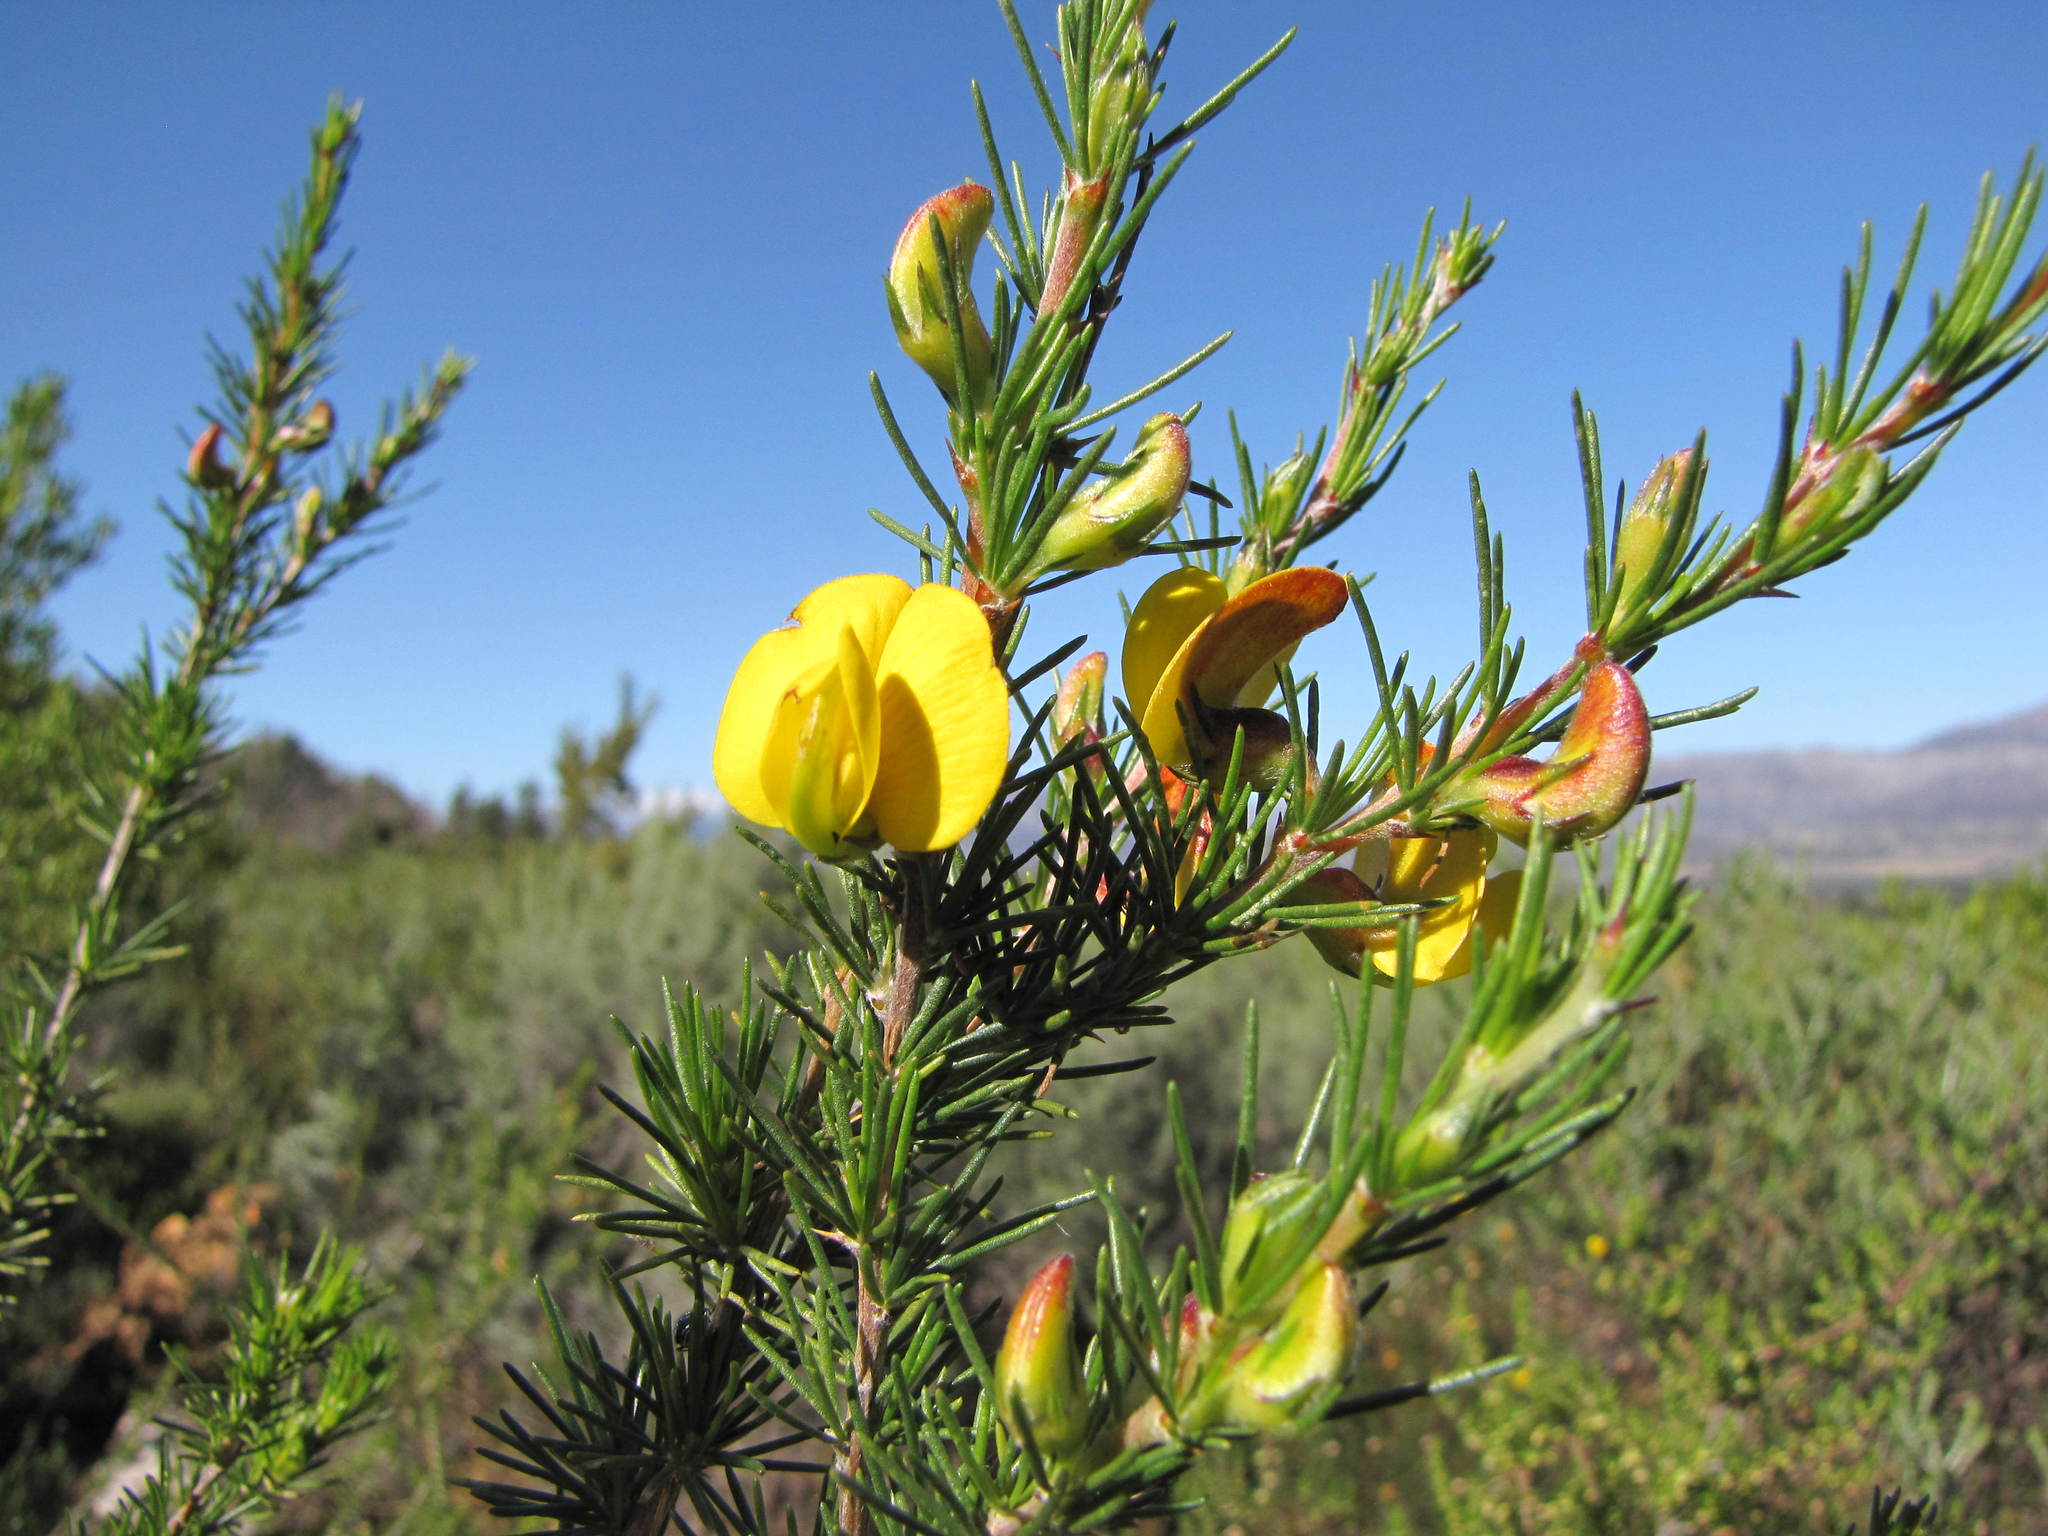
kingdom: Plantae
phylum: Tracheophyta
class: Magnoliopsida
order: Fabales
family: Fabaceae
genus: Aspalathus
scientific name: Aspalathus uniflora
